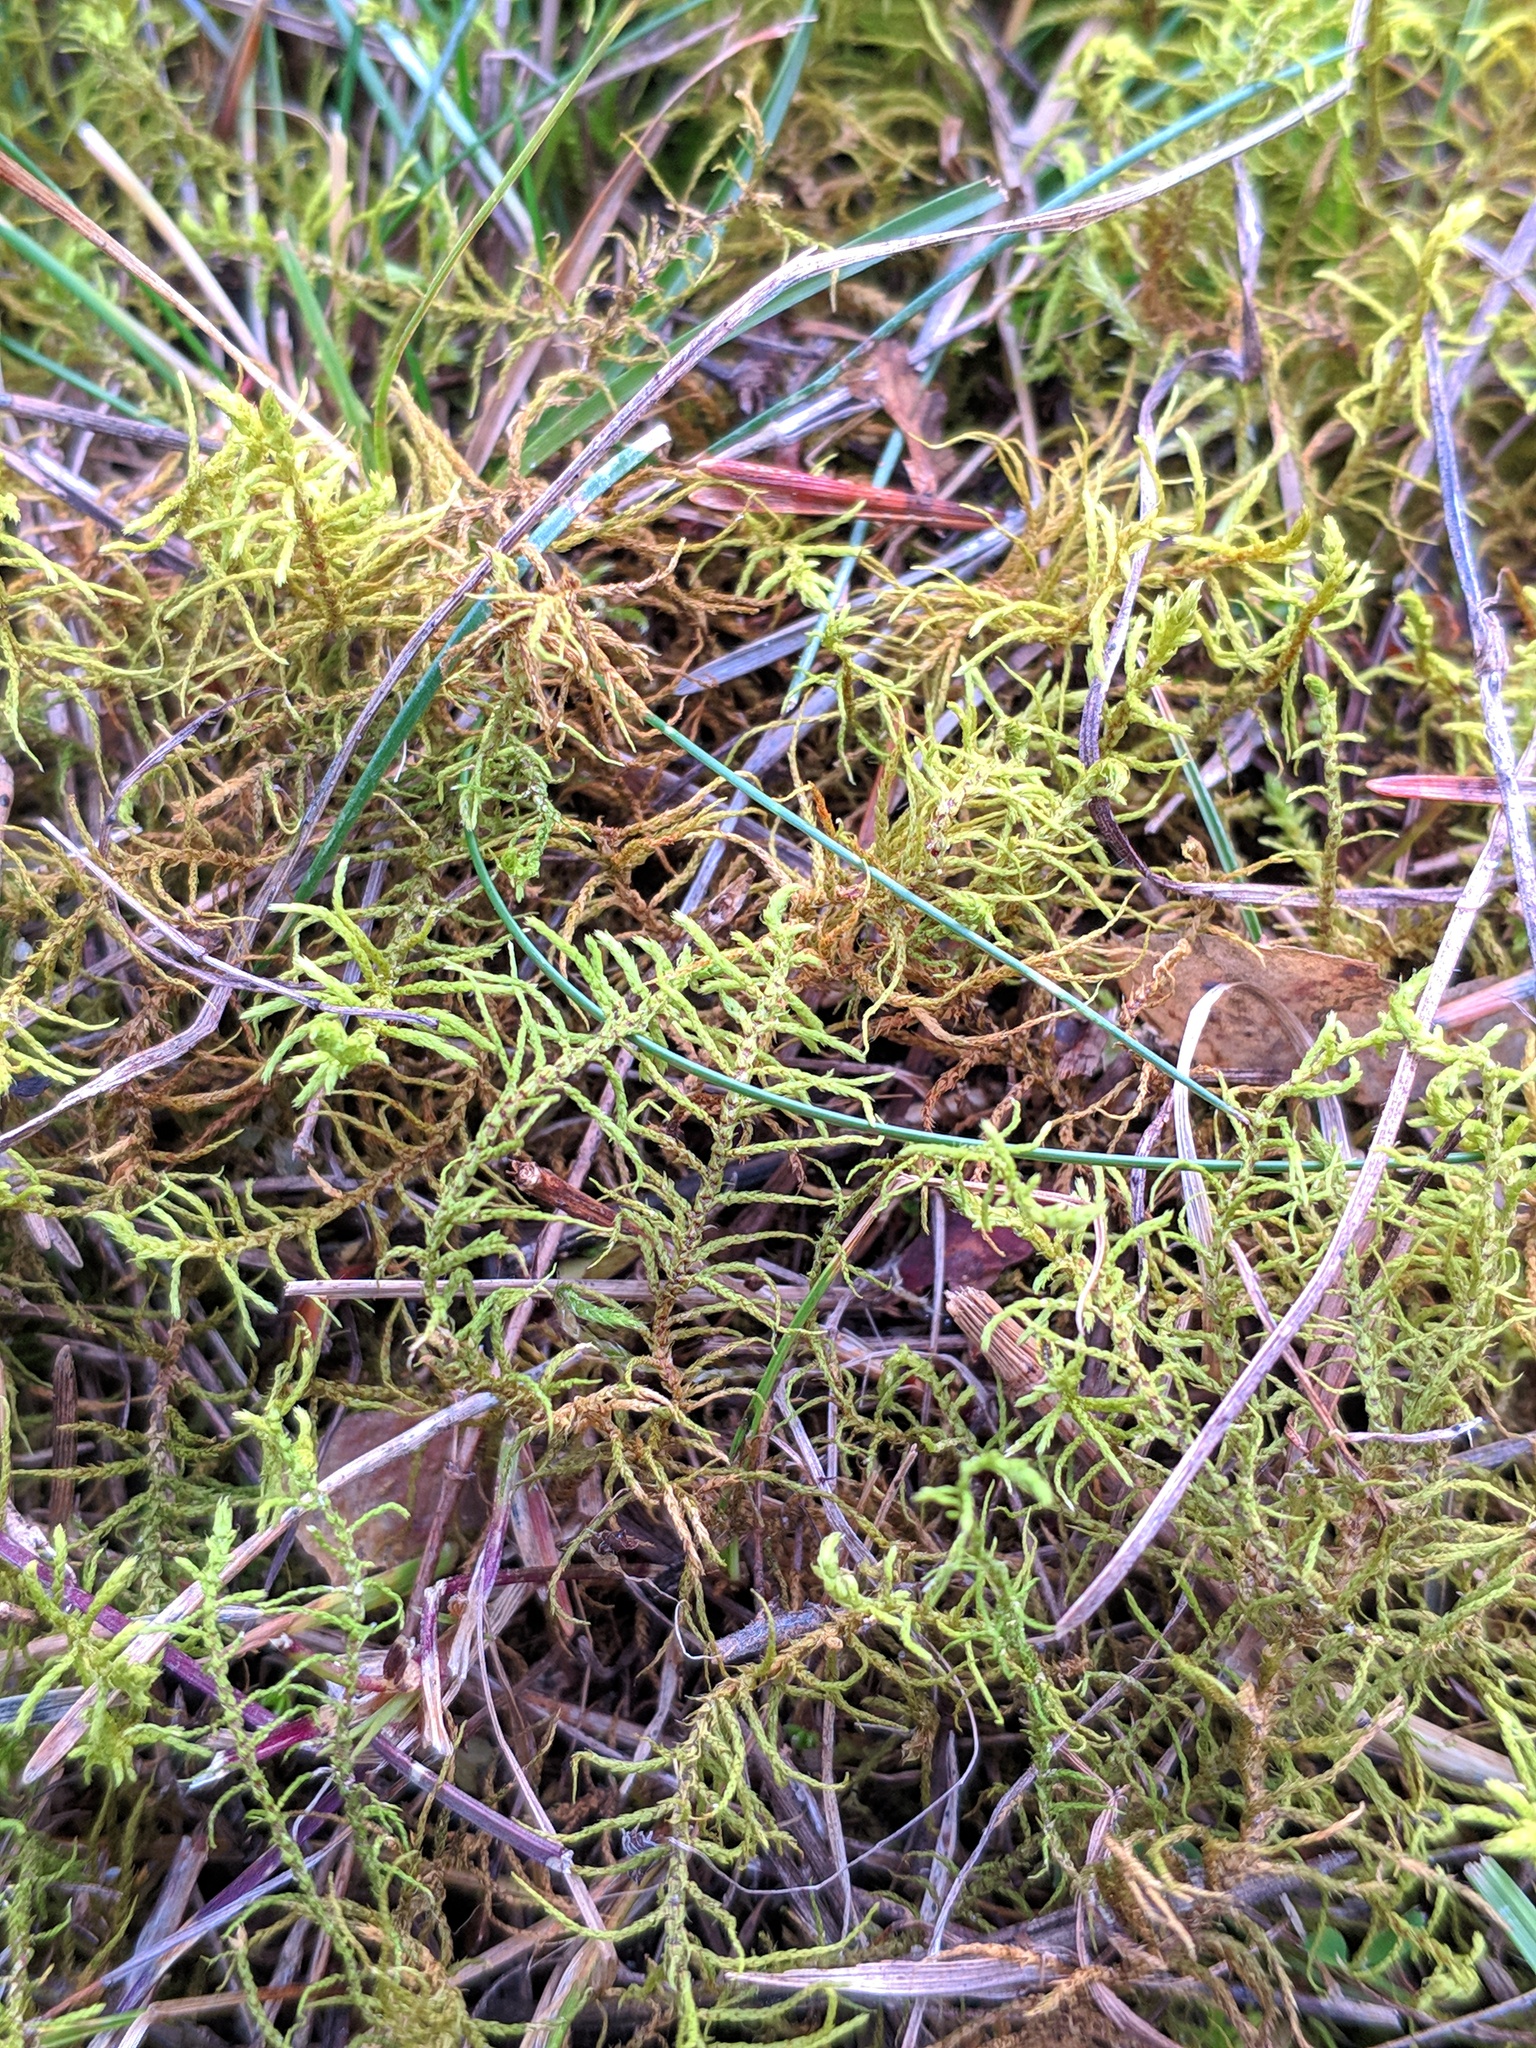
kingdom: Plantae
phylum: Bryophyta
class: Bryopsida
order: Hypnales
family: Thuidiaceae
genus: Abietinella
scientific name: Abietinella abietina
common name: Wiry fern moss
